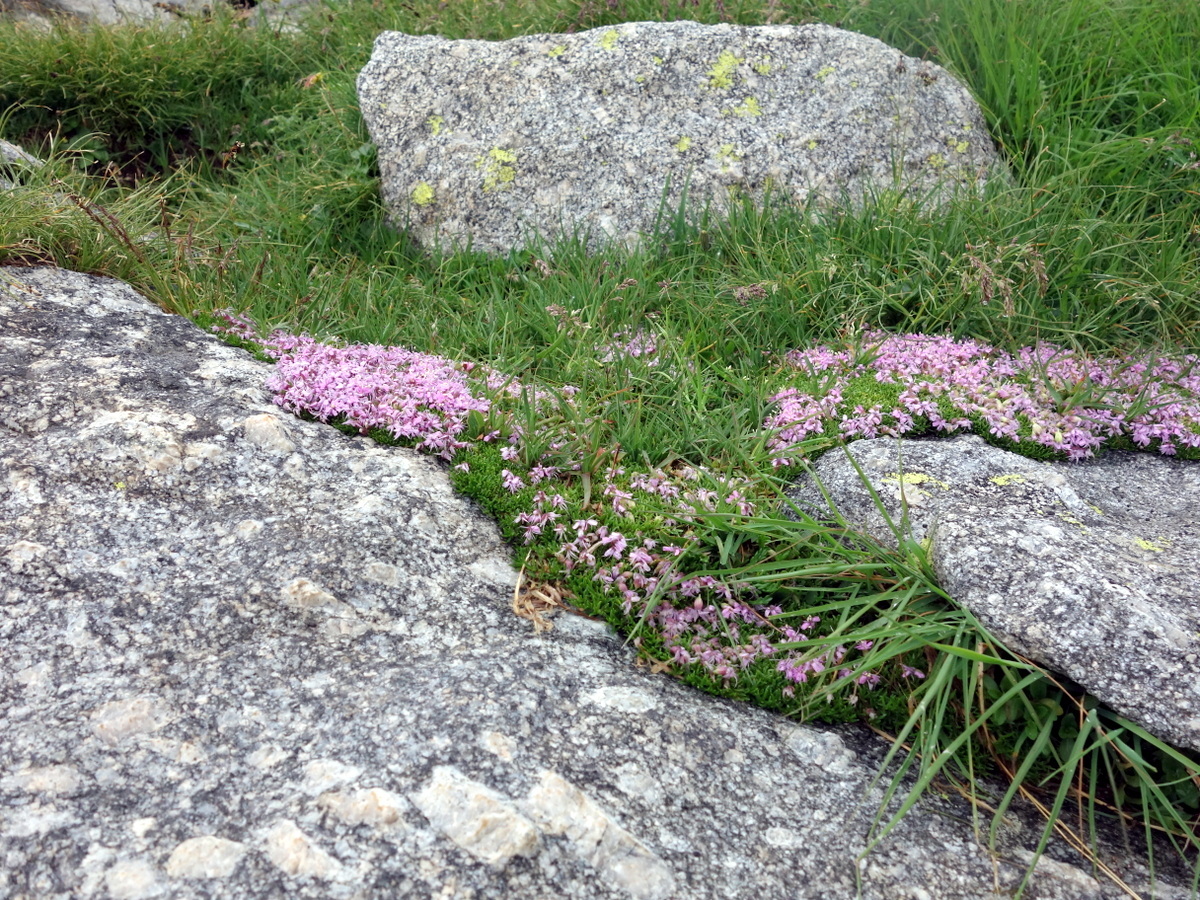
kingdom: Plantae
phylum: Tracheophyta
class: Magnoliopsida
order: Caryophyllales
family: Caryophyllaceae
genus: Silene
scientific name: Silene acaulis
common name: Moss campion
